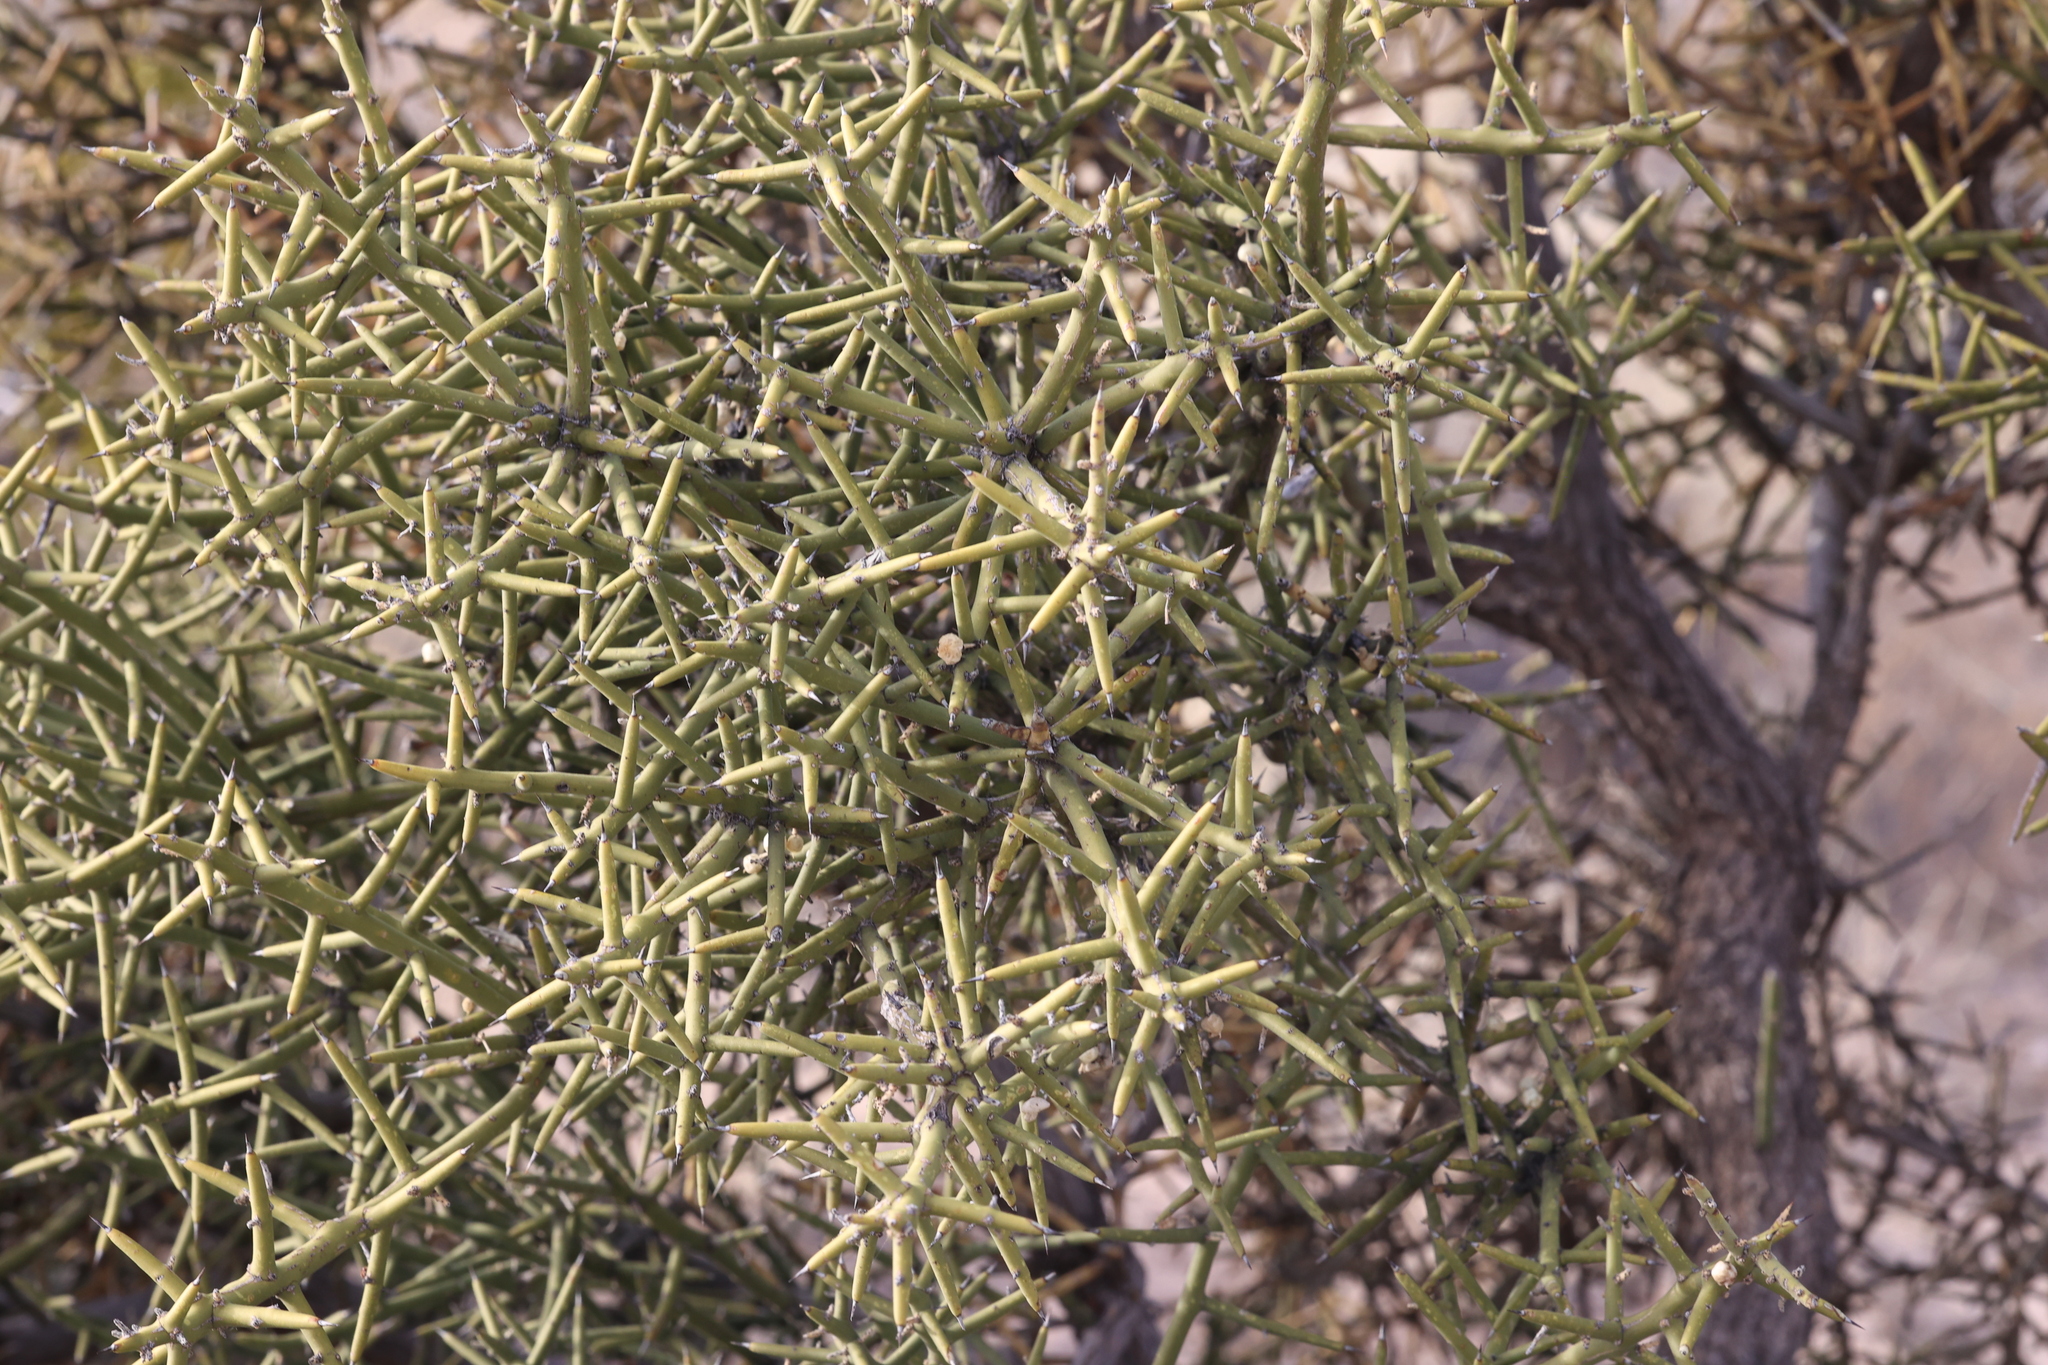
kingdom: Plantae
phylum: Tracheophyta
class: Magnoliopsida
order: Brassicales
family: Koeberliniaceae
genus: Koeberlinia
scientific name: Koeberlinia spinosa
